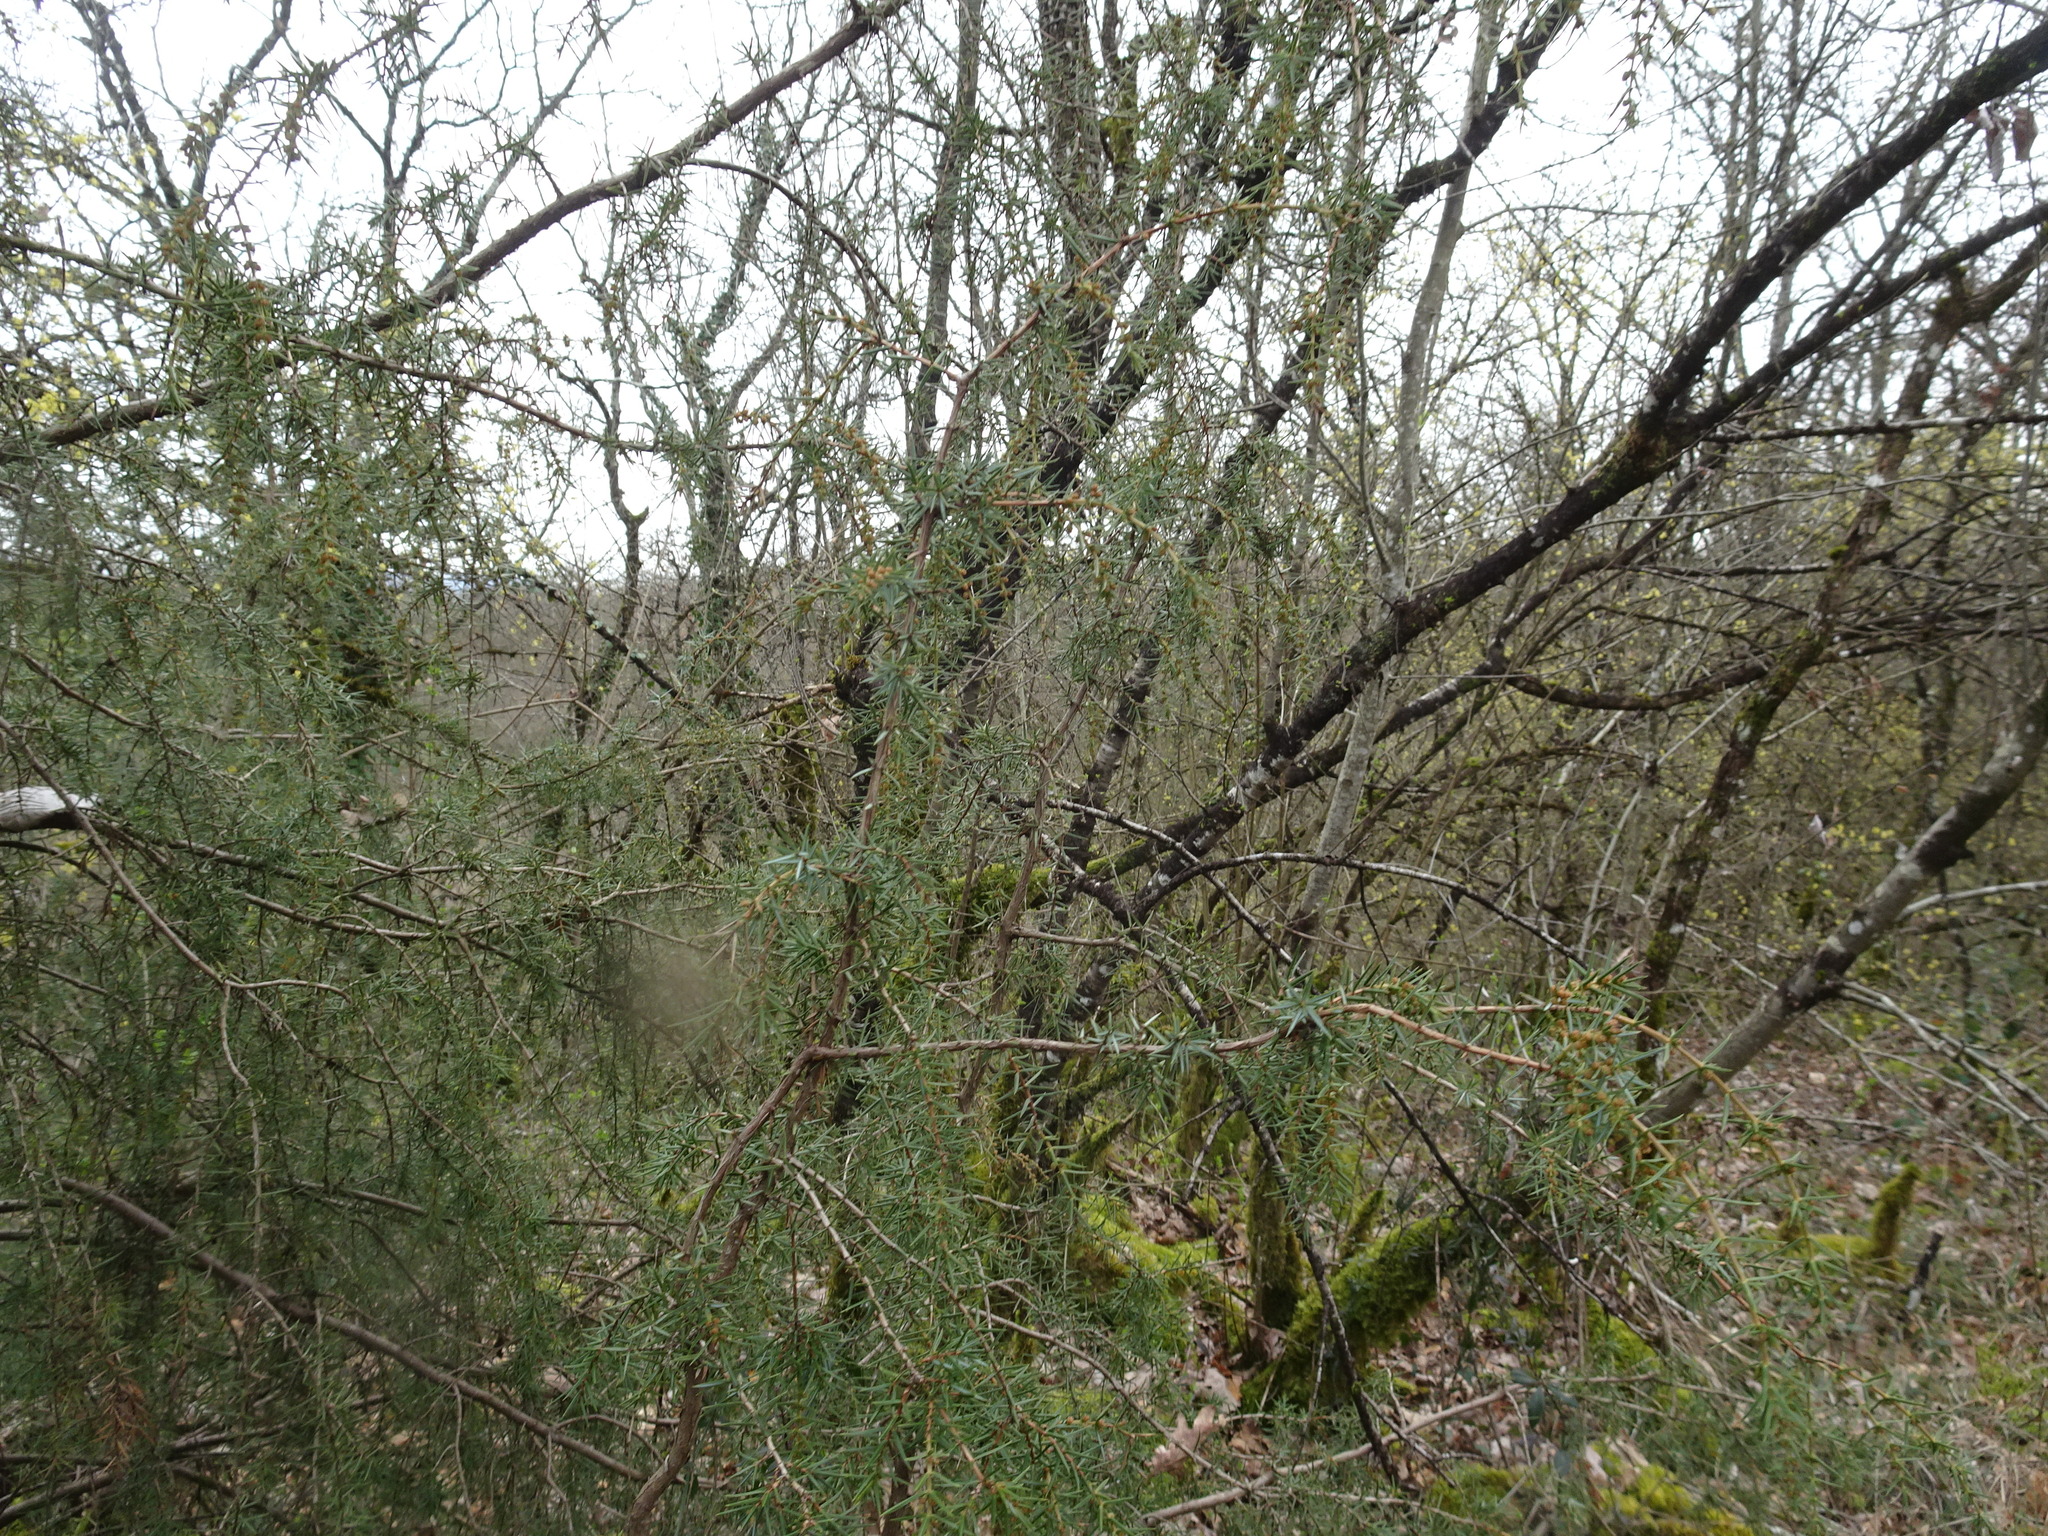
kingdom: Plantae
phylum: Tracheophyta
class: Pinopsida
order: Pinales
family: Cupressaceae
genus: Juniperus
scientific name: Juniperus communis
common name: Common juniper
